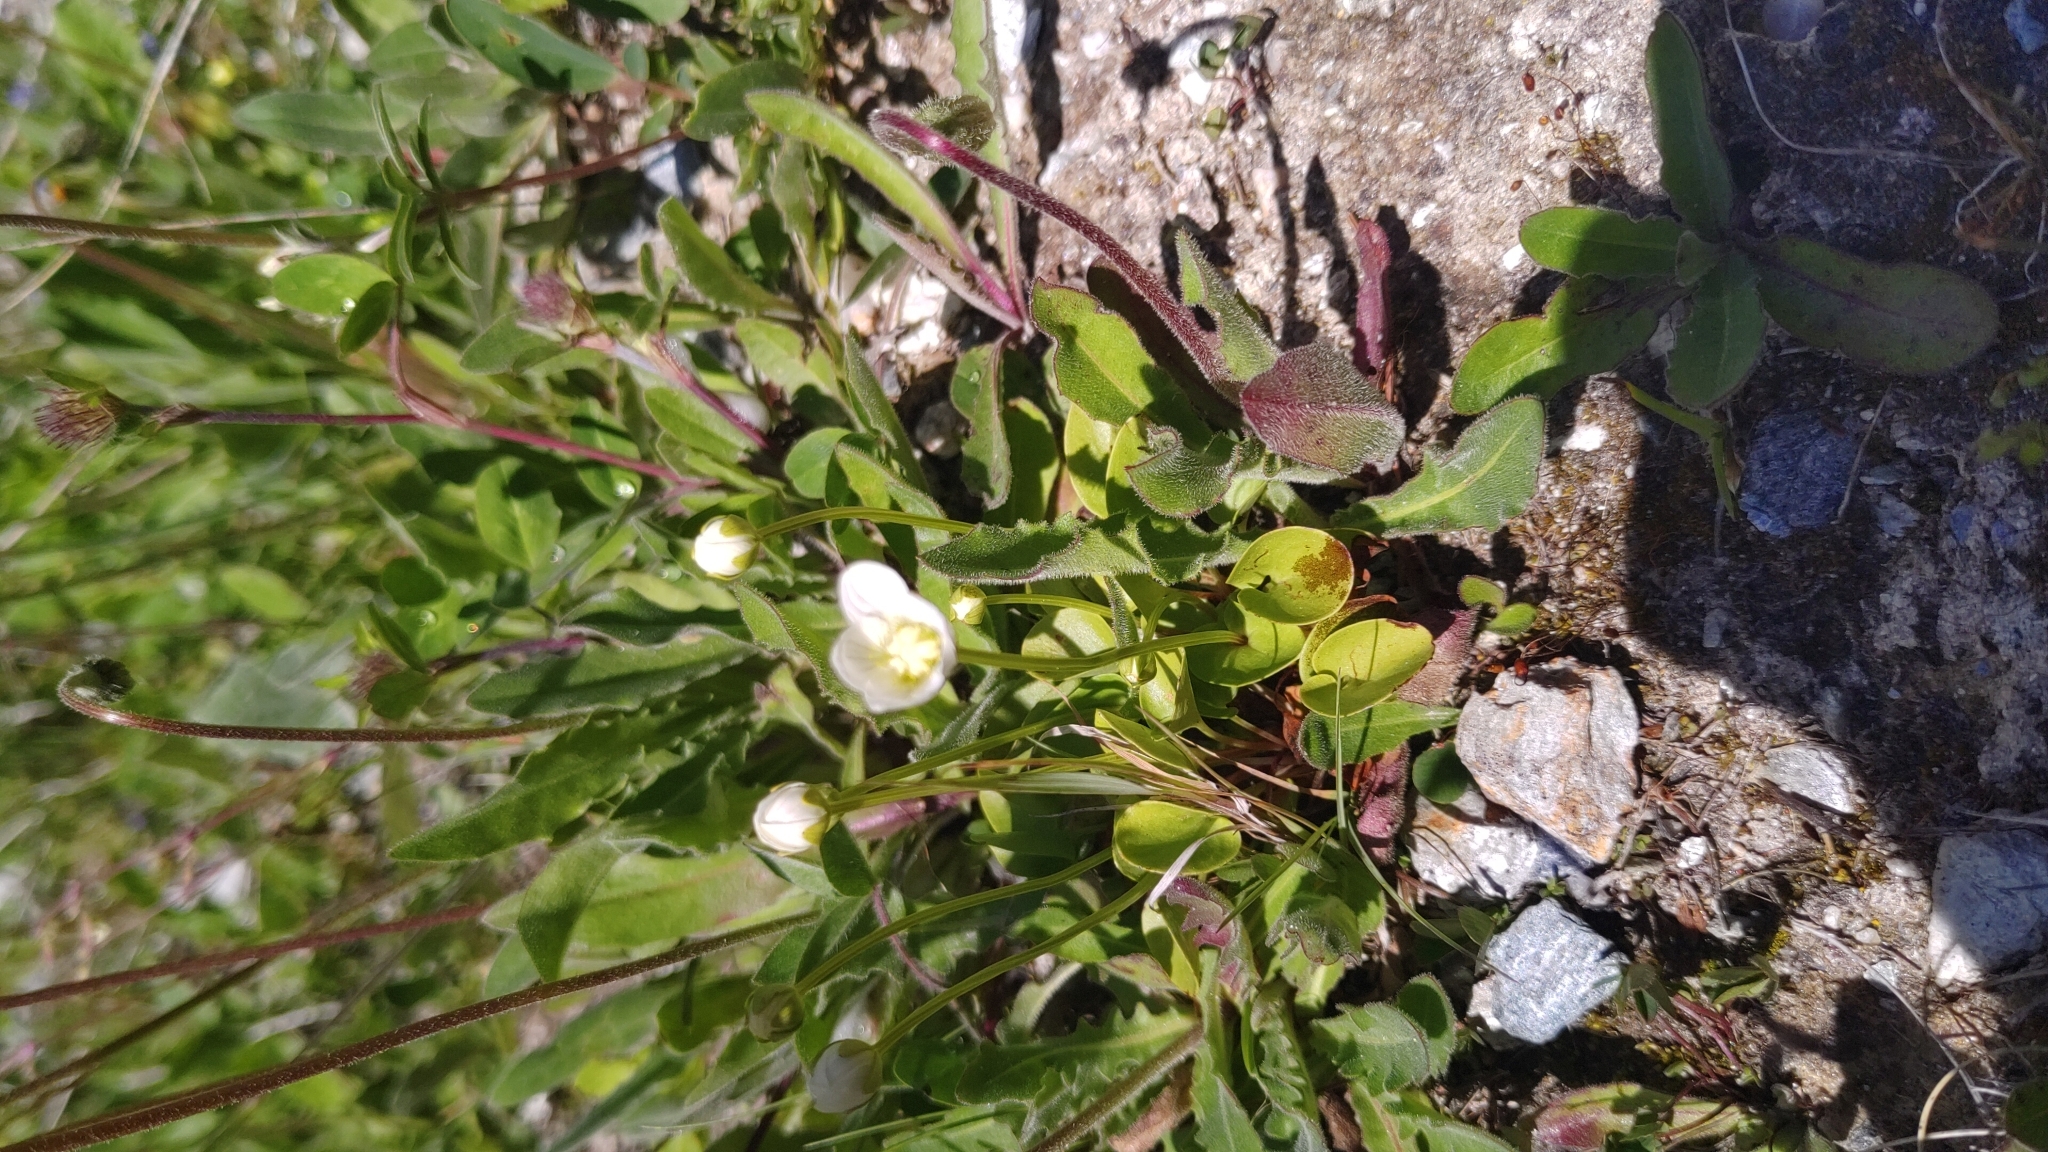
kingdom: Plantae
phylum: Tracheophyta
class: Magnoliopsida
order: Celastrales
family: Parnassiaceae
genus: Parnassia
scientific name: Parnassia palustris
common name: Grass-of-parnassus
